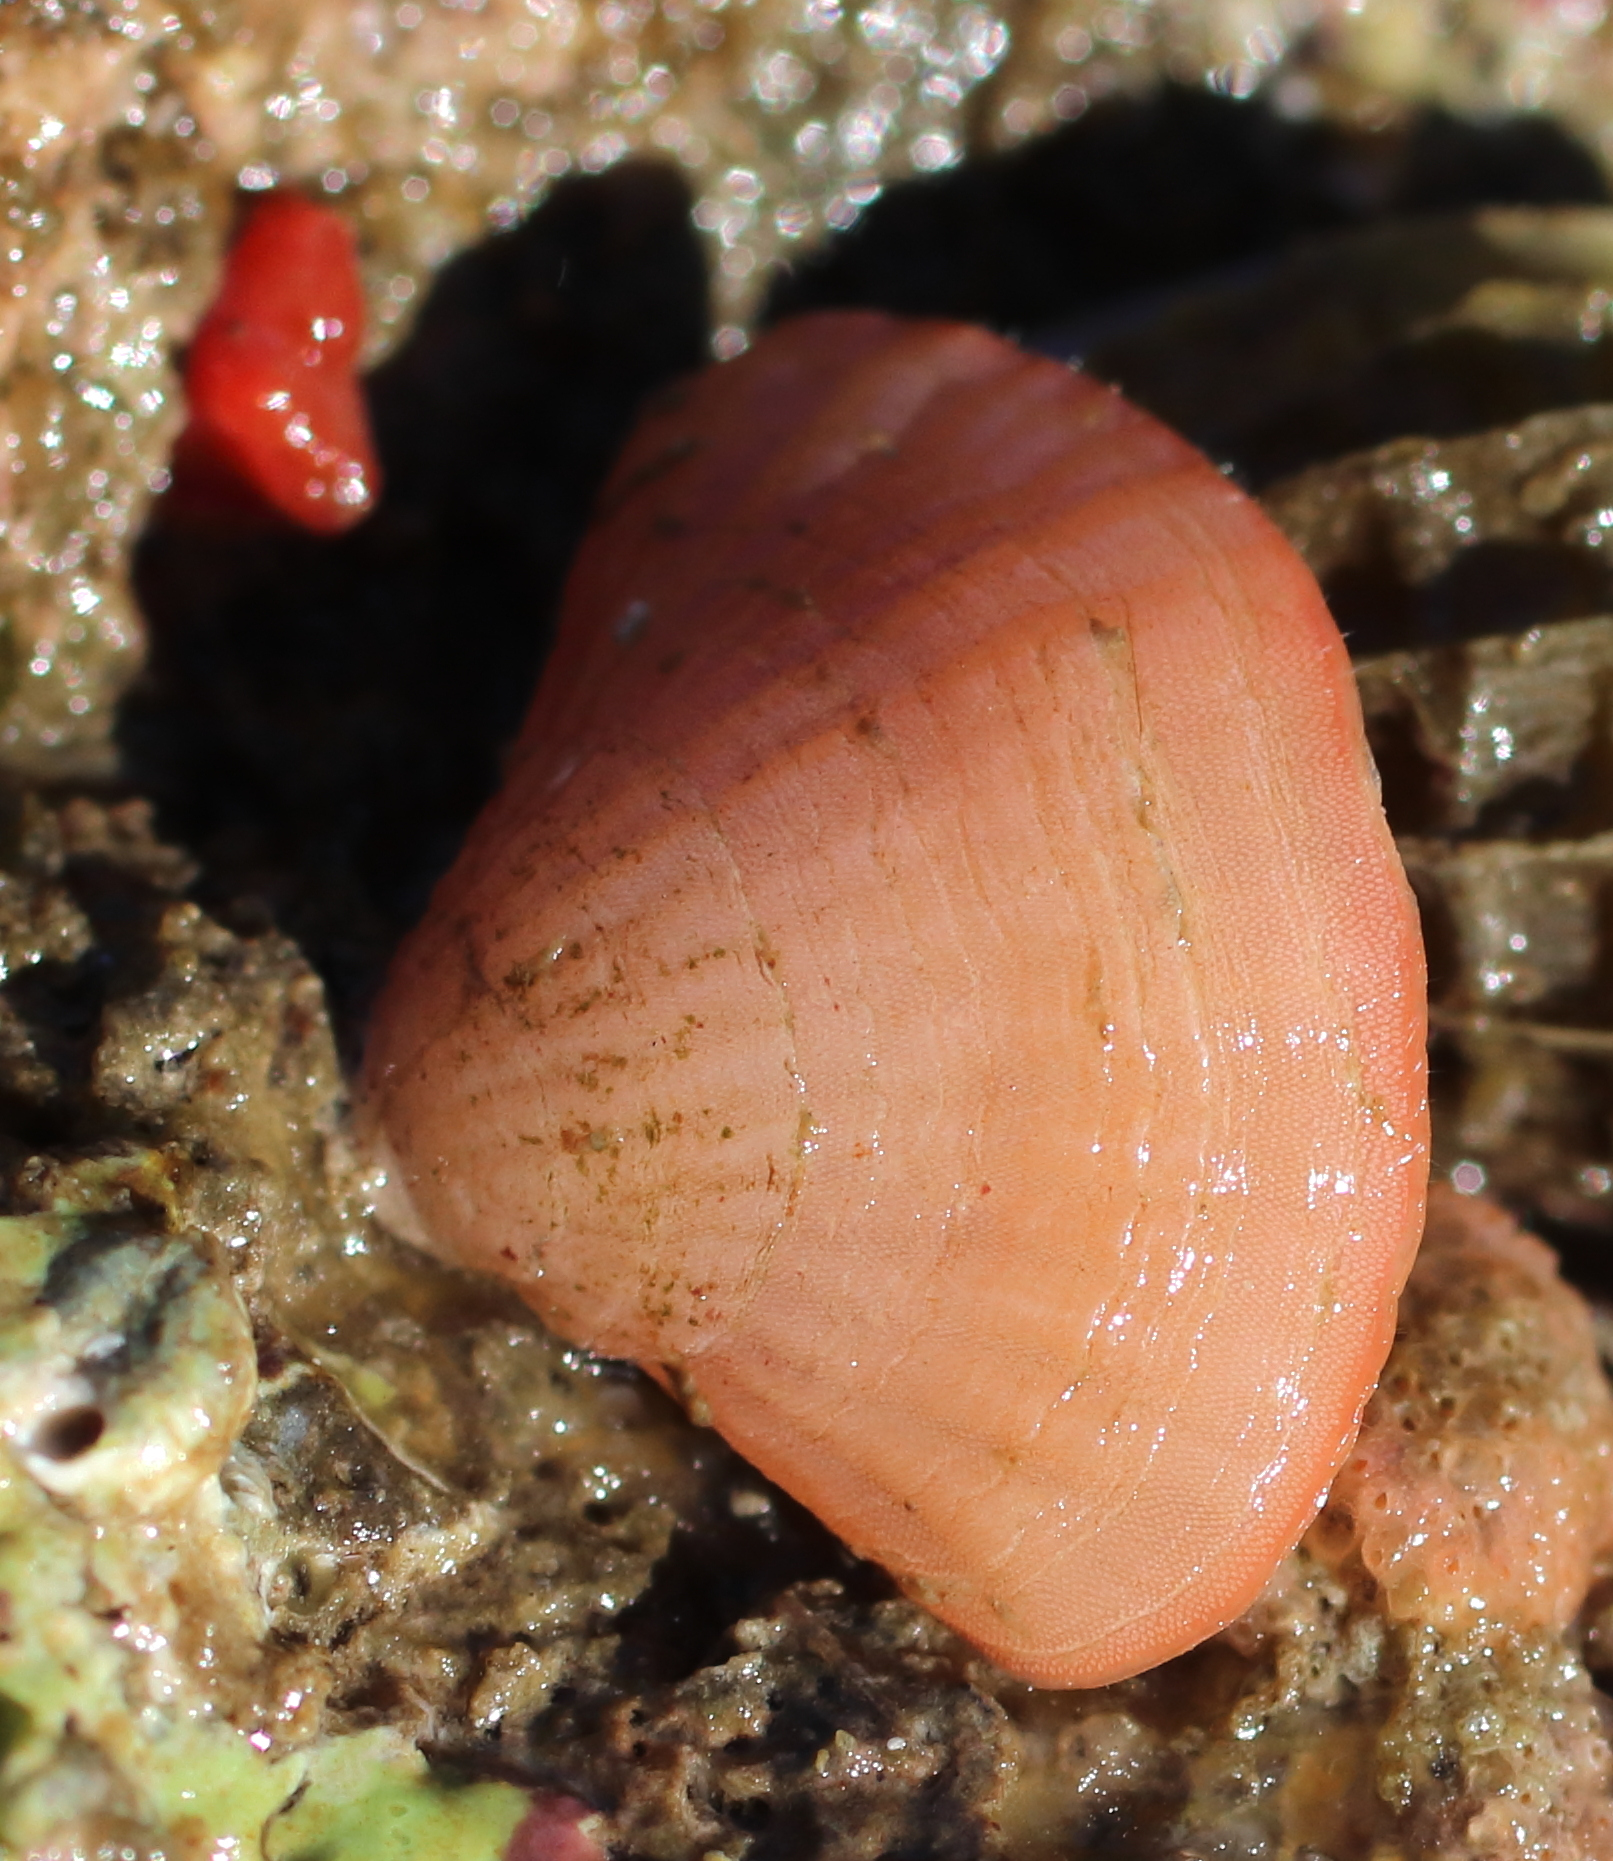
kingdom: Animalia
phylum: Brachiopoda
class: Rhynchonellata
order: Terebratulida
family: Terebrataliidae
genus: Terebratalia
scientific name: Terebratalia transversa
